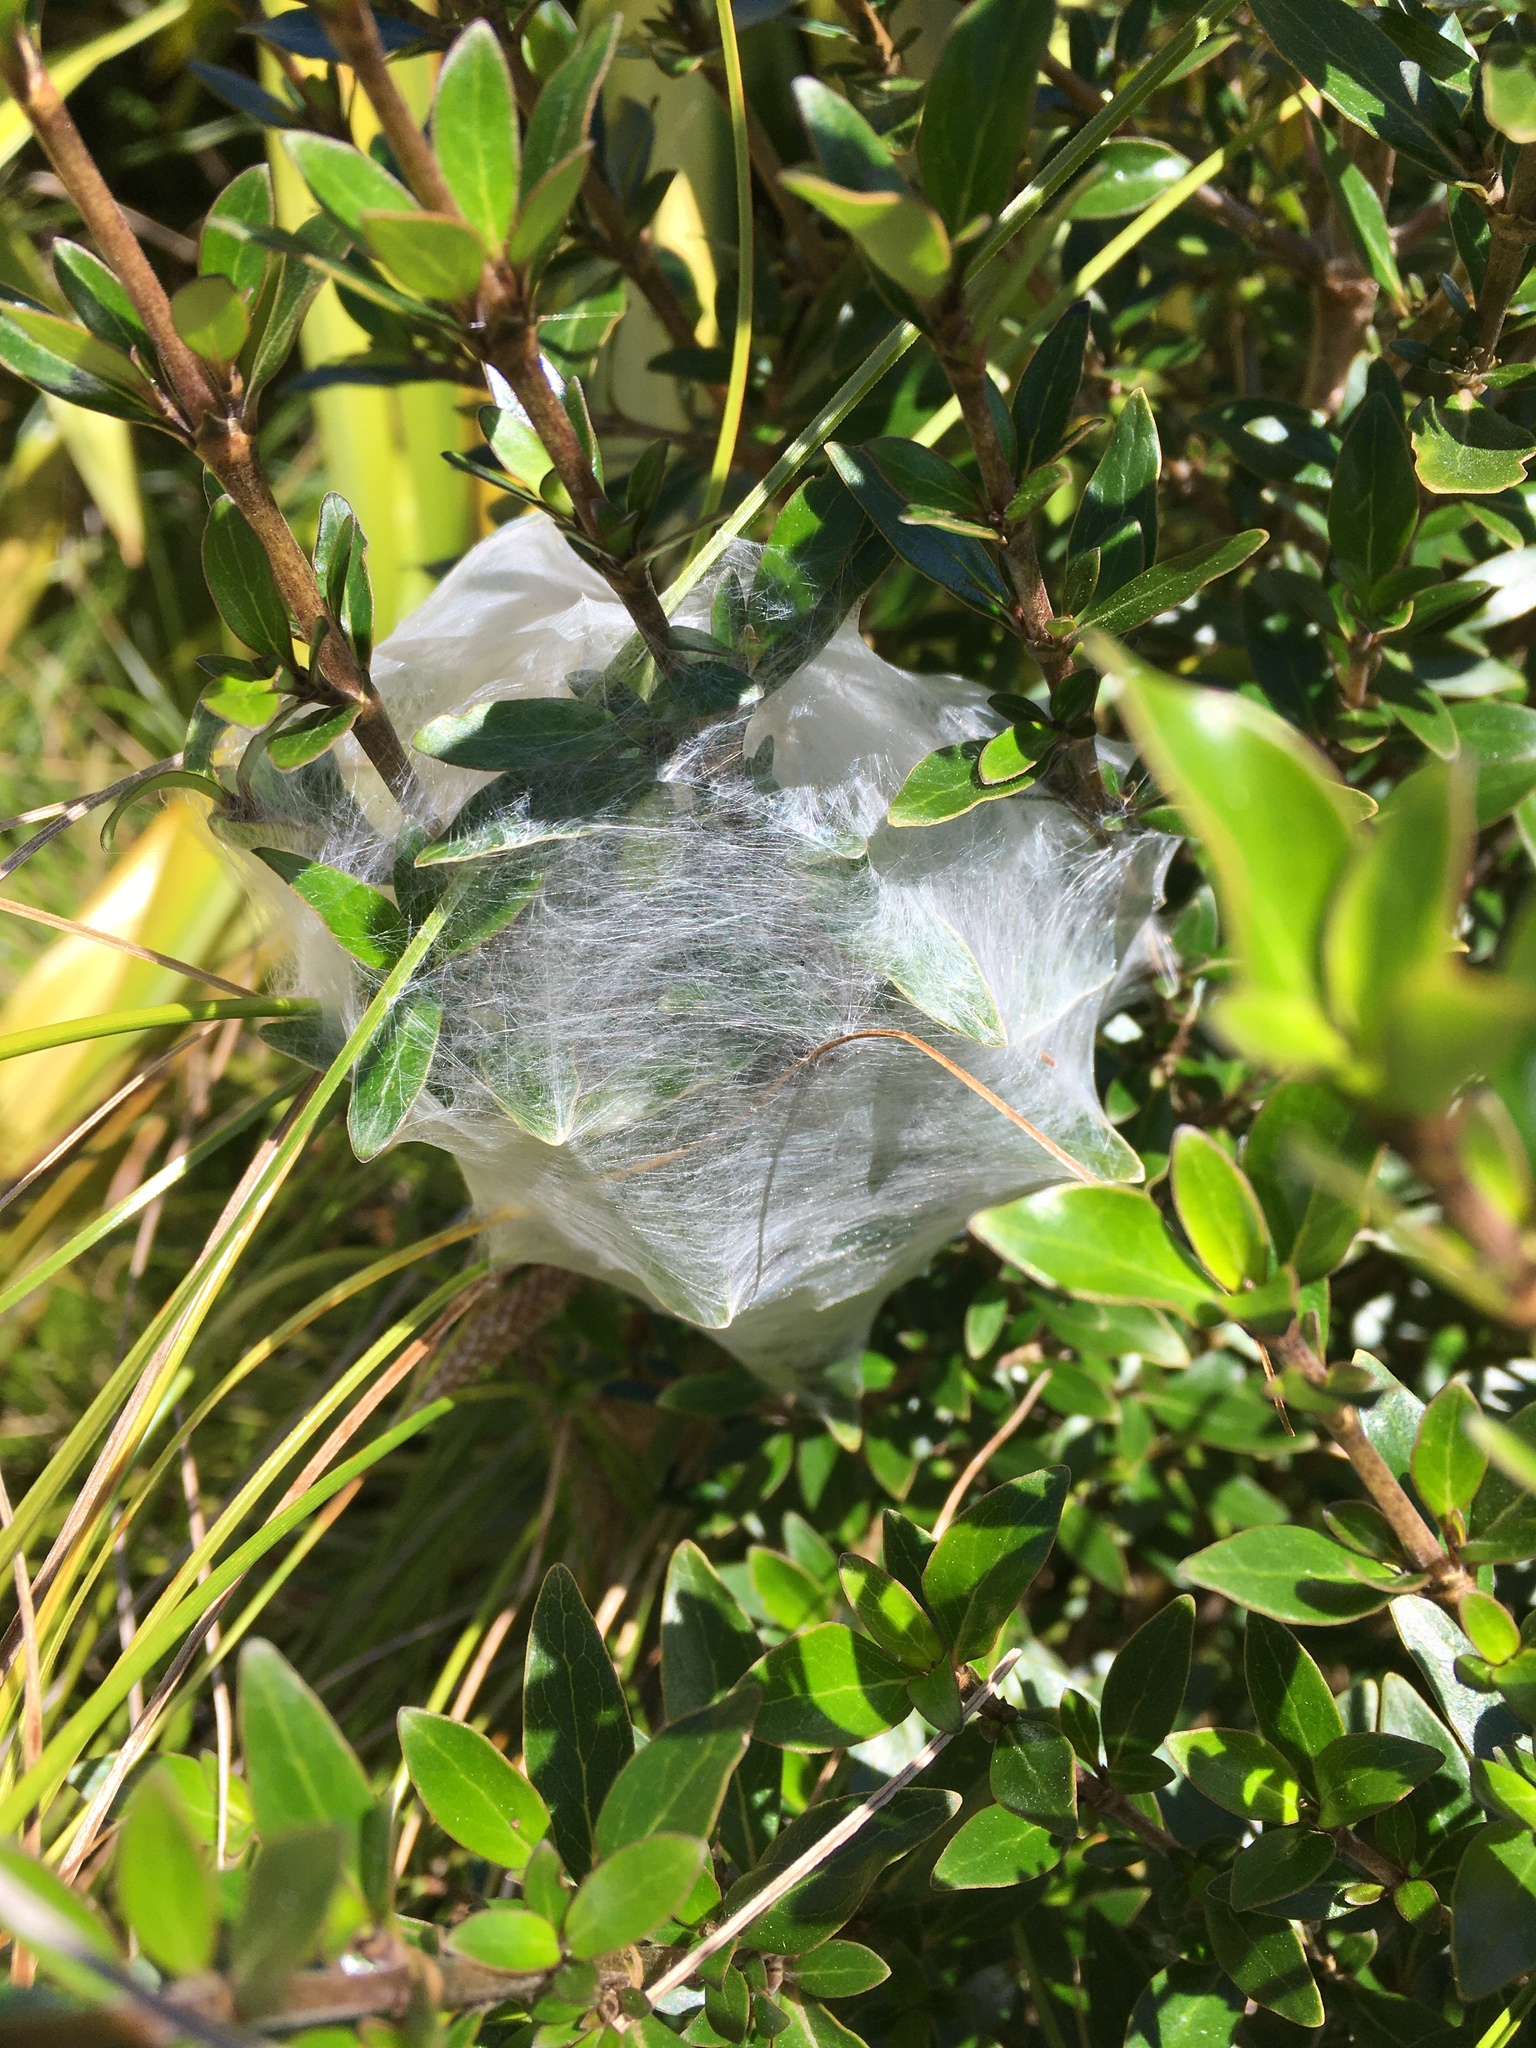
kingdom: Animalia
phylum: Arthropoda
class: Arachnida
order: Araneae
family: Pisauridae
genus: Dolomedes
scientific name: Dolomedes minor
